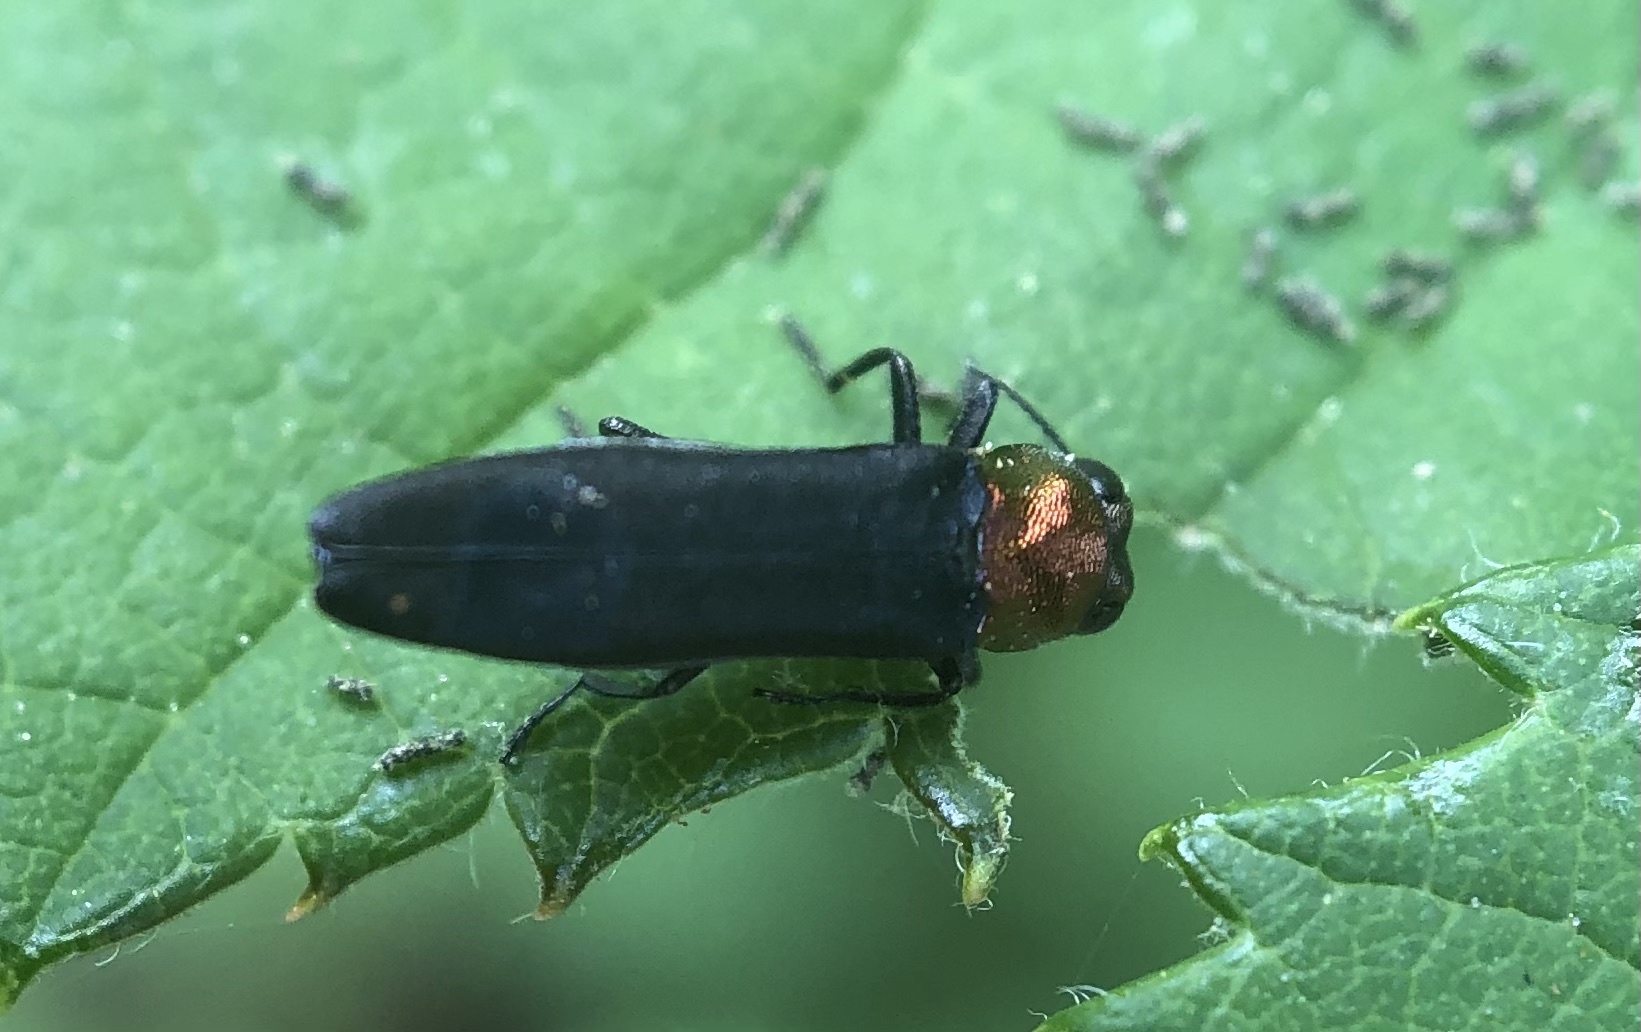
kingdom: Animalia
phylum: Arthropoda
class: Insecta
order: Coleoptera
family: Buprestidae
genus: Agrilus
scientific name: Agrilus ruficollis
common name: Red-necked cane borer beetle
